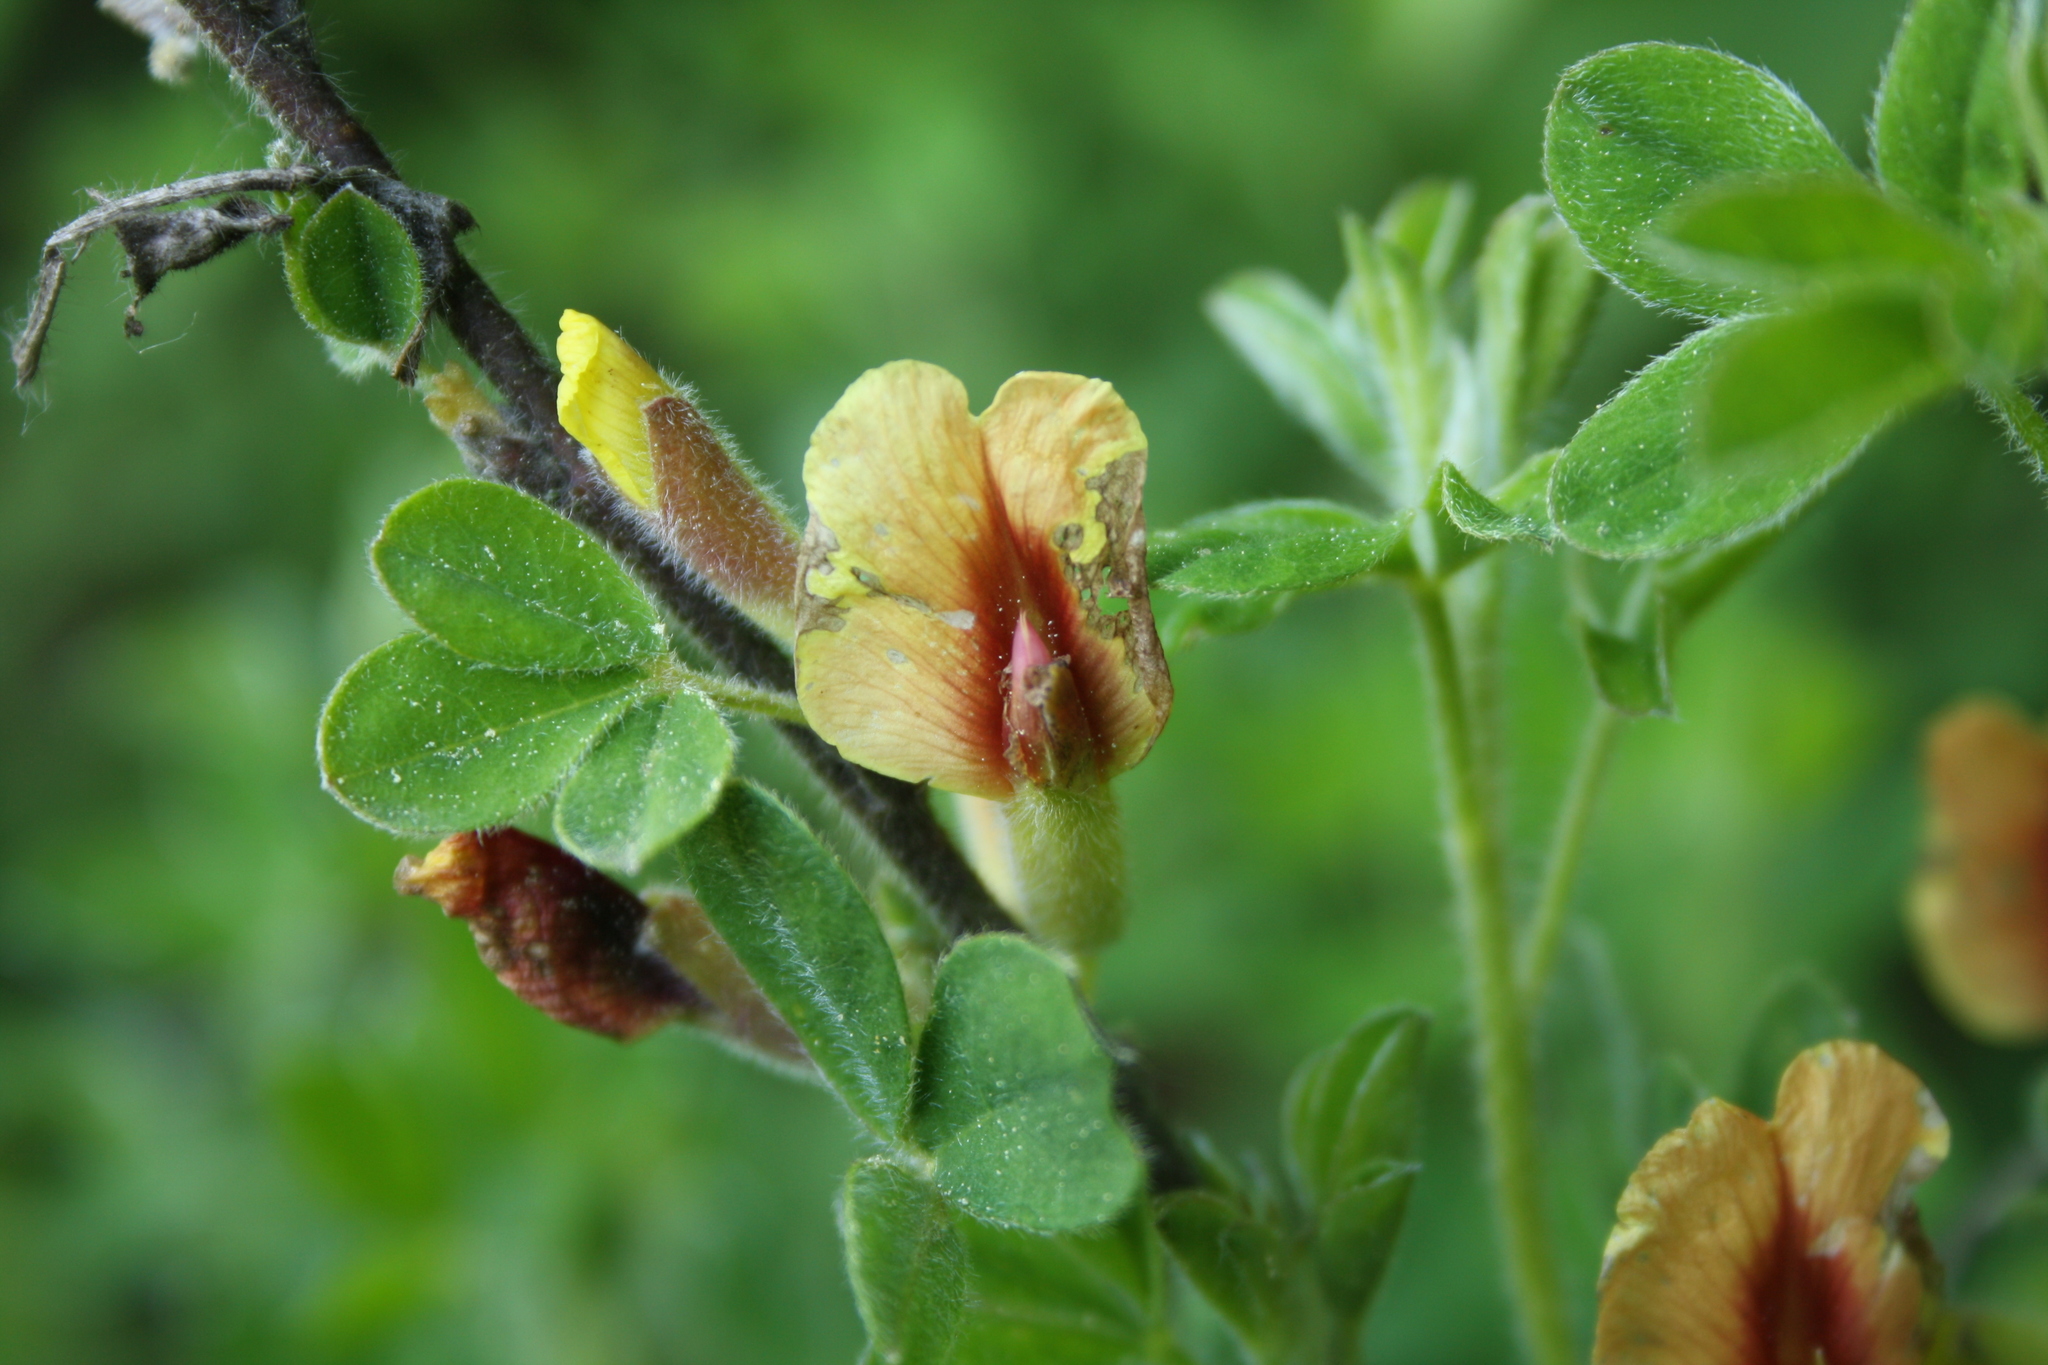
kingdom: Plantae
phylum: Tracheophyta
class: Magnoliopsida
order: Fabales
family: Fabaceae
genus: Chamaecytisus
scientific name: Chamaecytisus hirsutus
